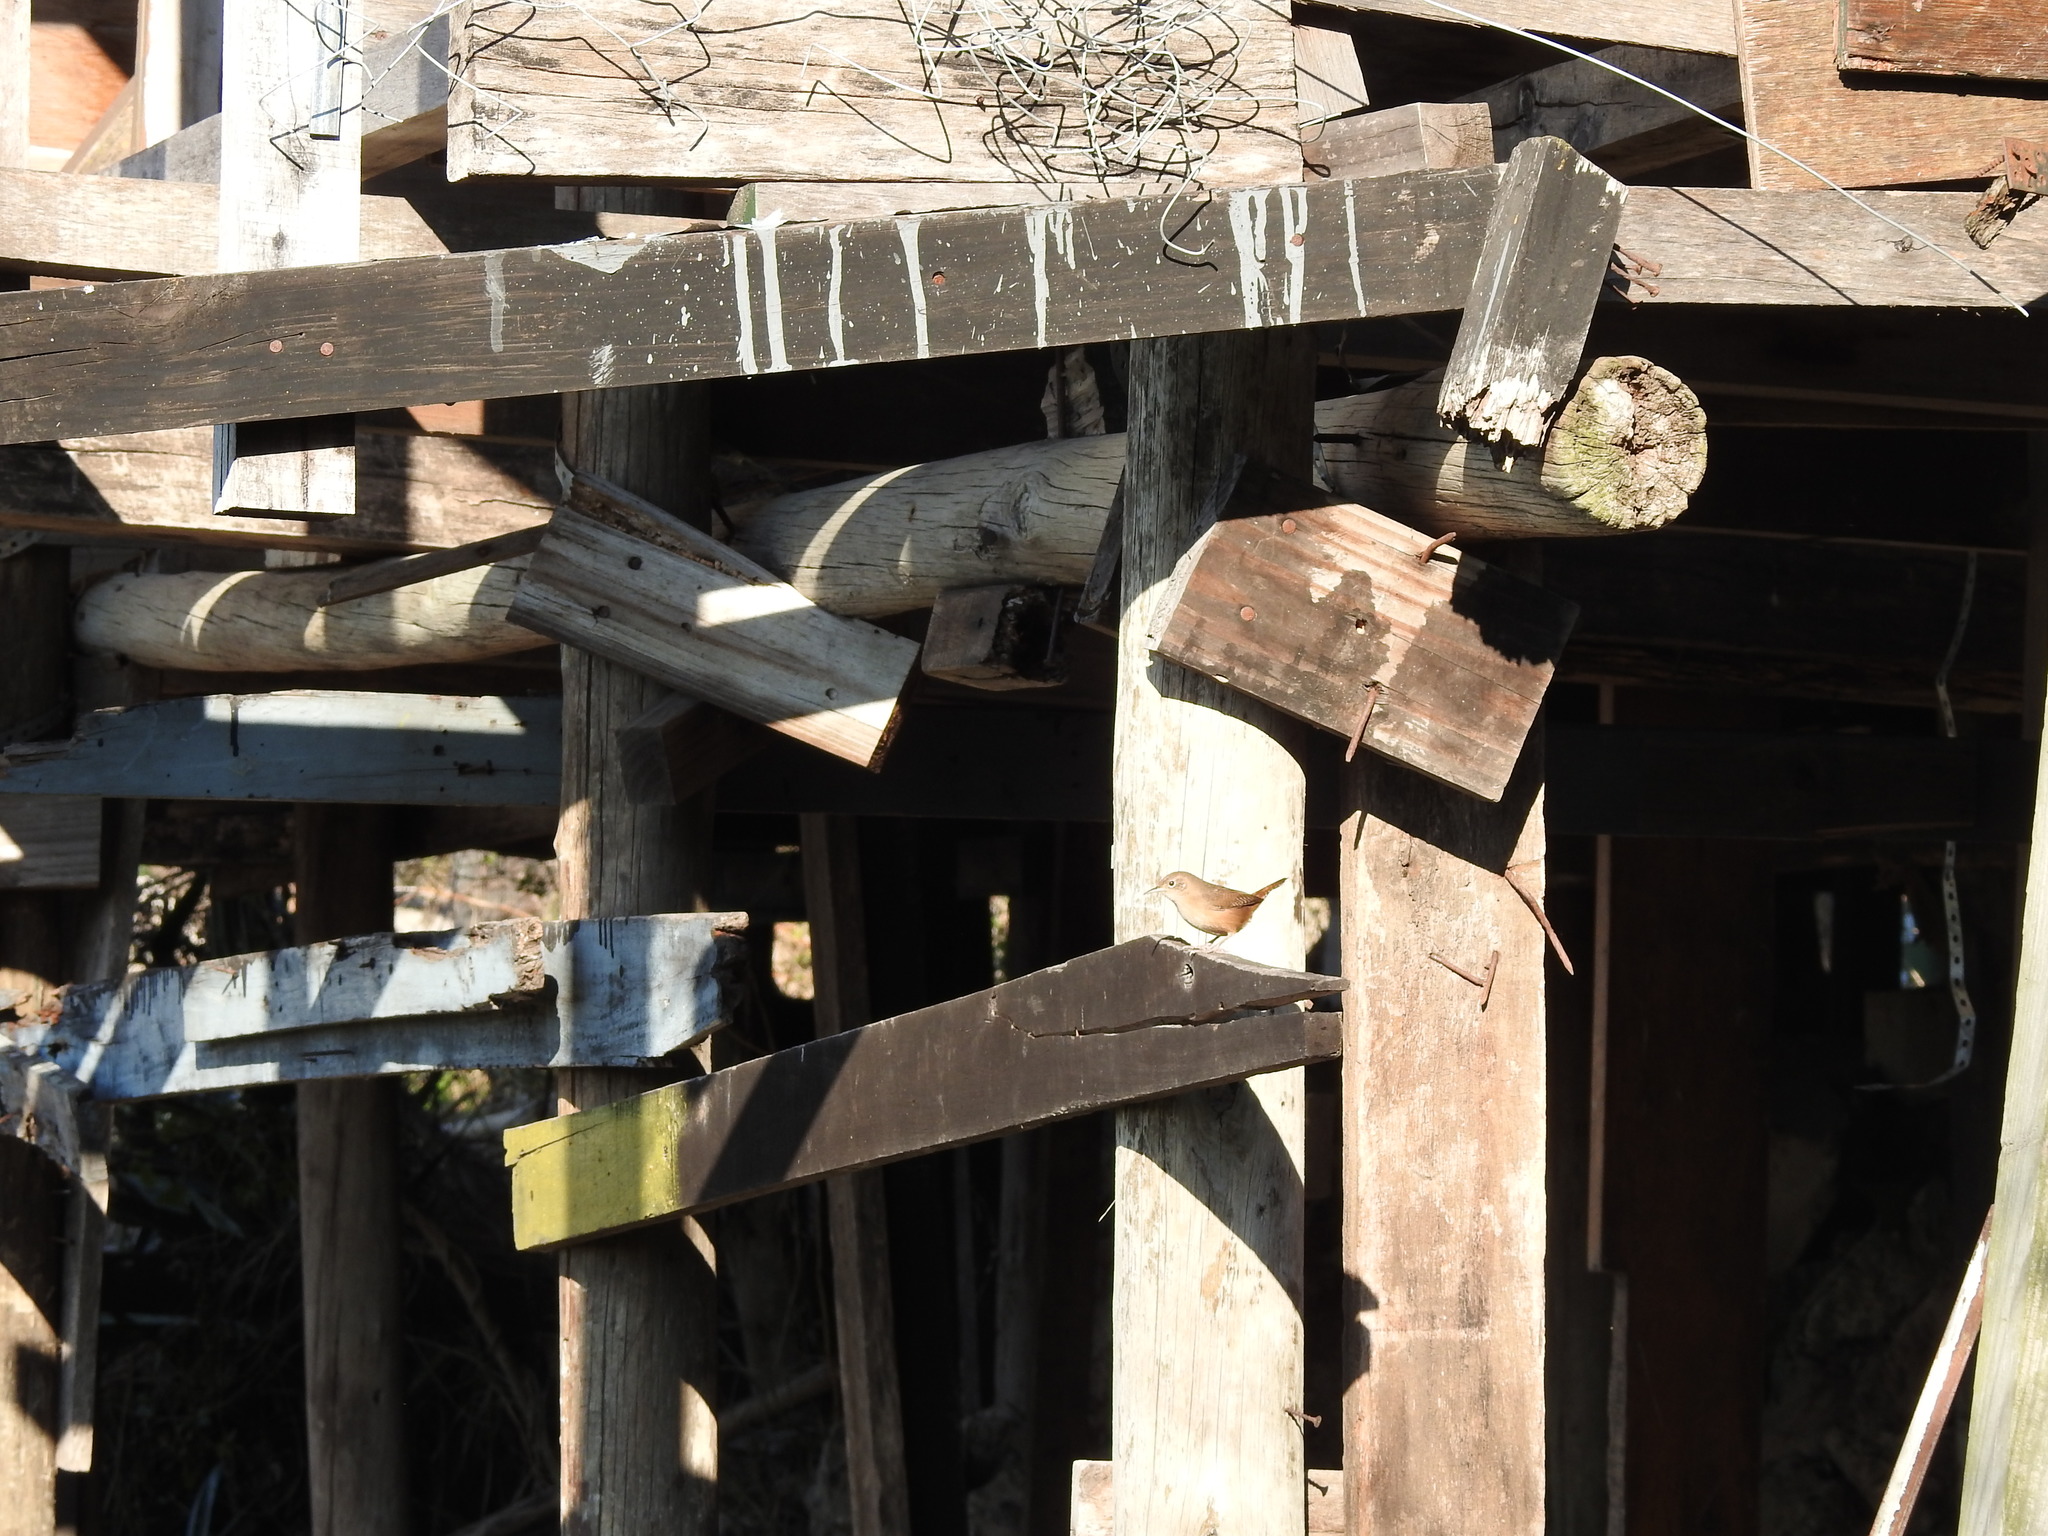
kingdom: Animalia
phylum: Chordata
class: Aves
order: Passeriformes
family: Troglodytidae
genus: Troglodytes
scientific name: Troglodytes aedon
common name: House wren
